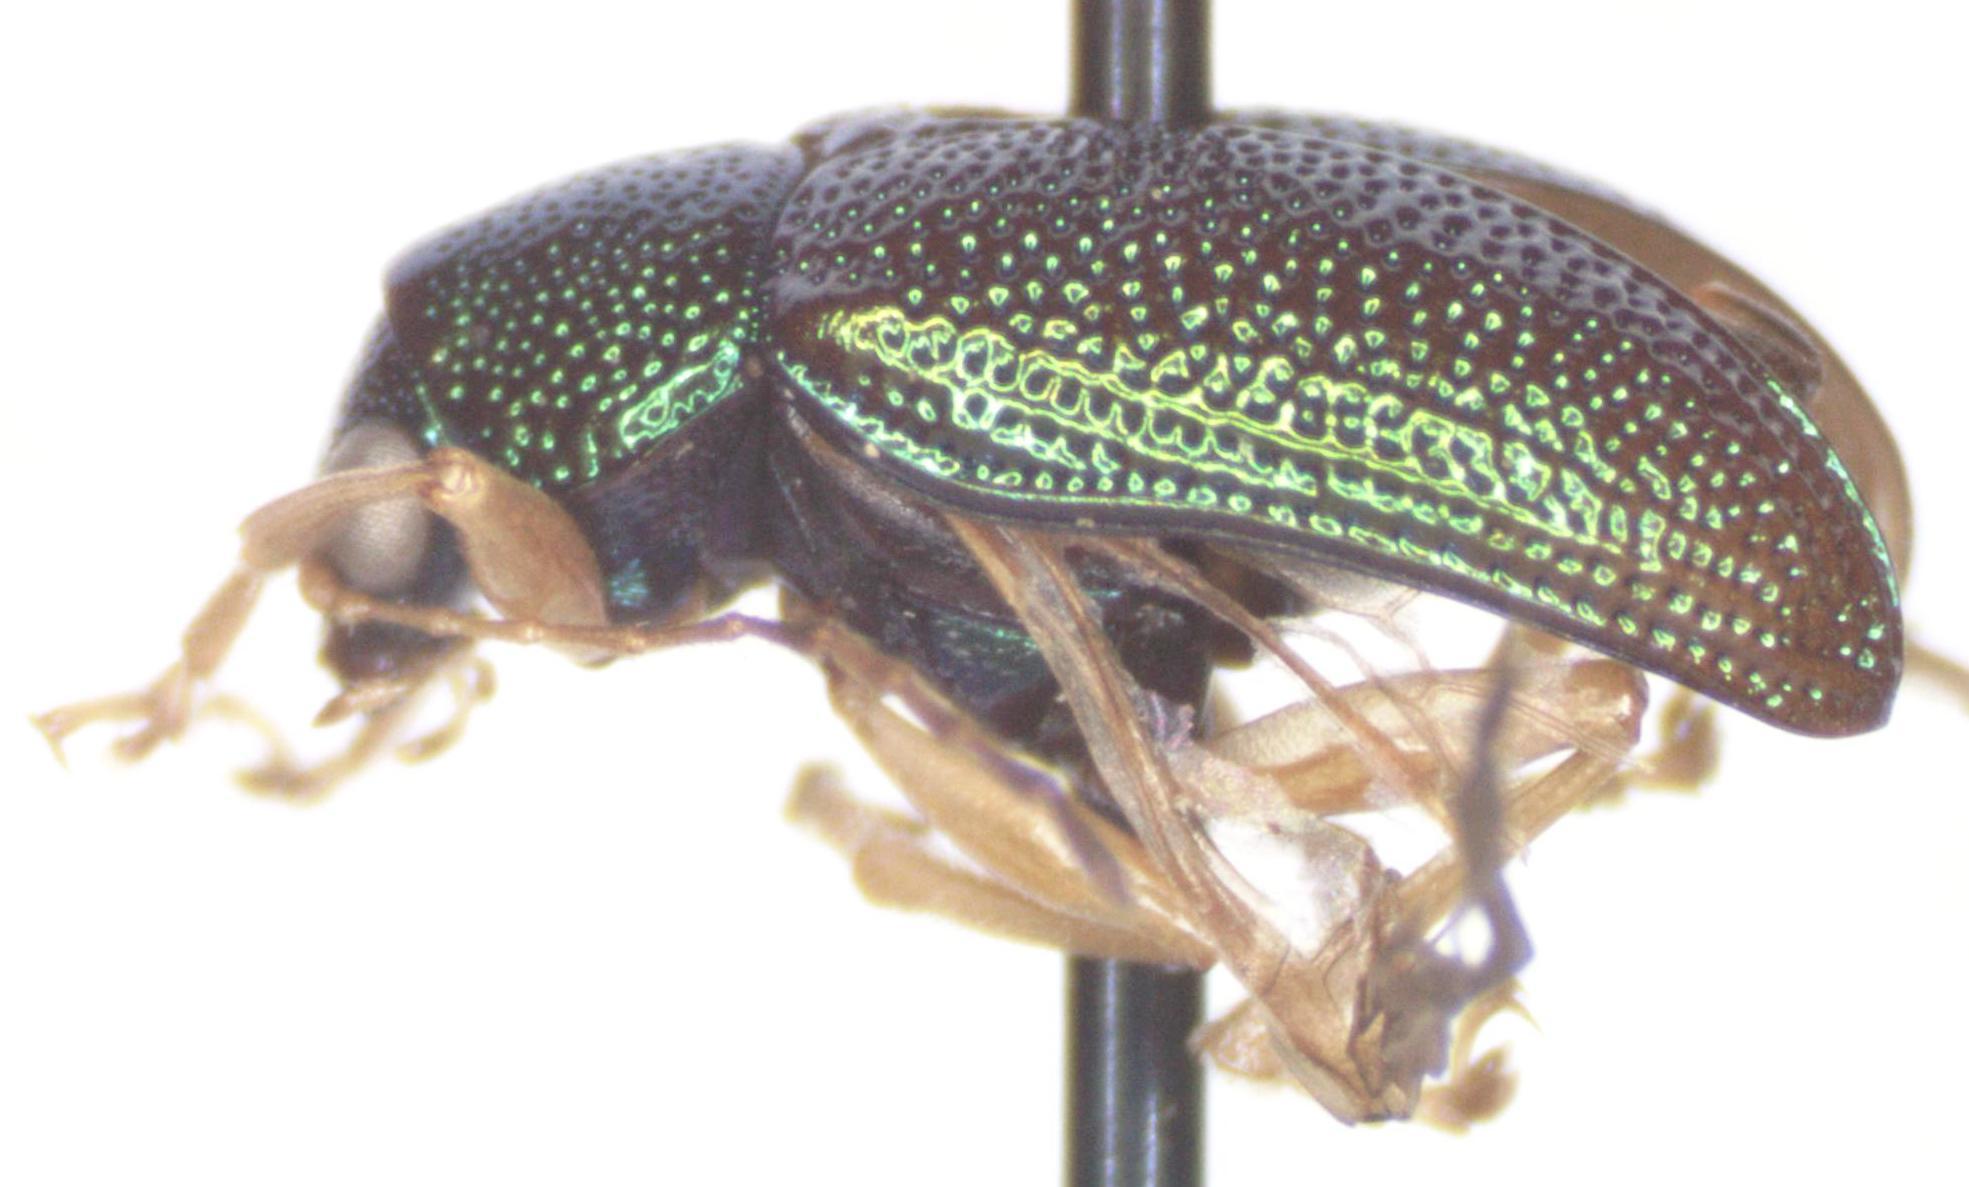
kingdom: Animalia
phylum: Arthropoda
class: Insecta
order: Coleoptera
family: Chrysomelidae
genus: Colaspis
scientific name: Colaspis
